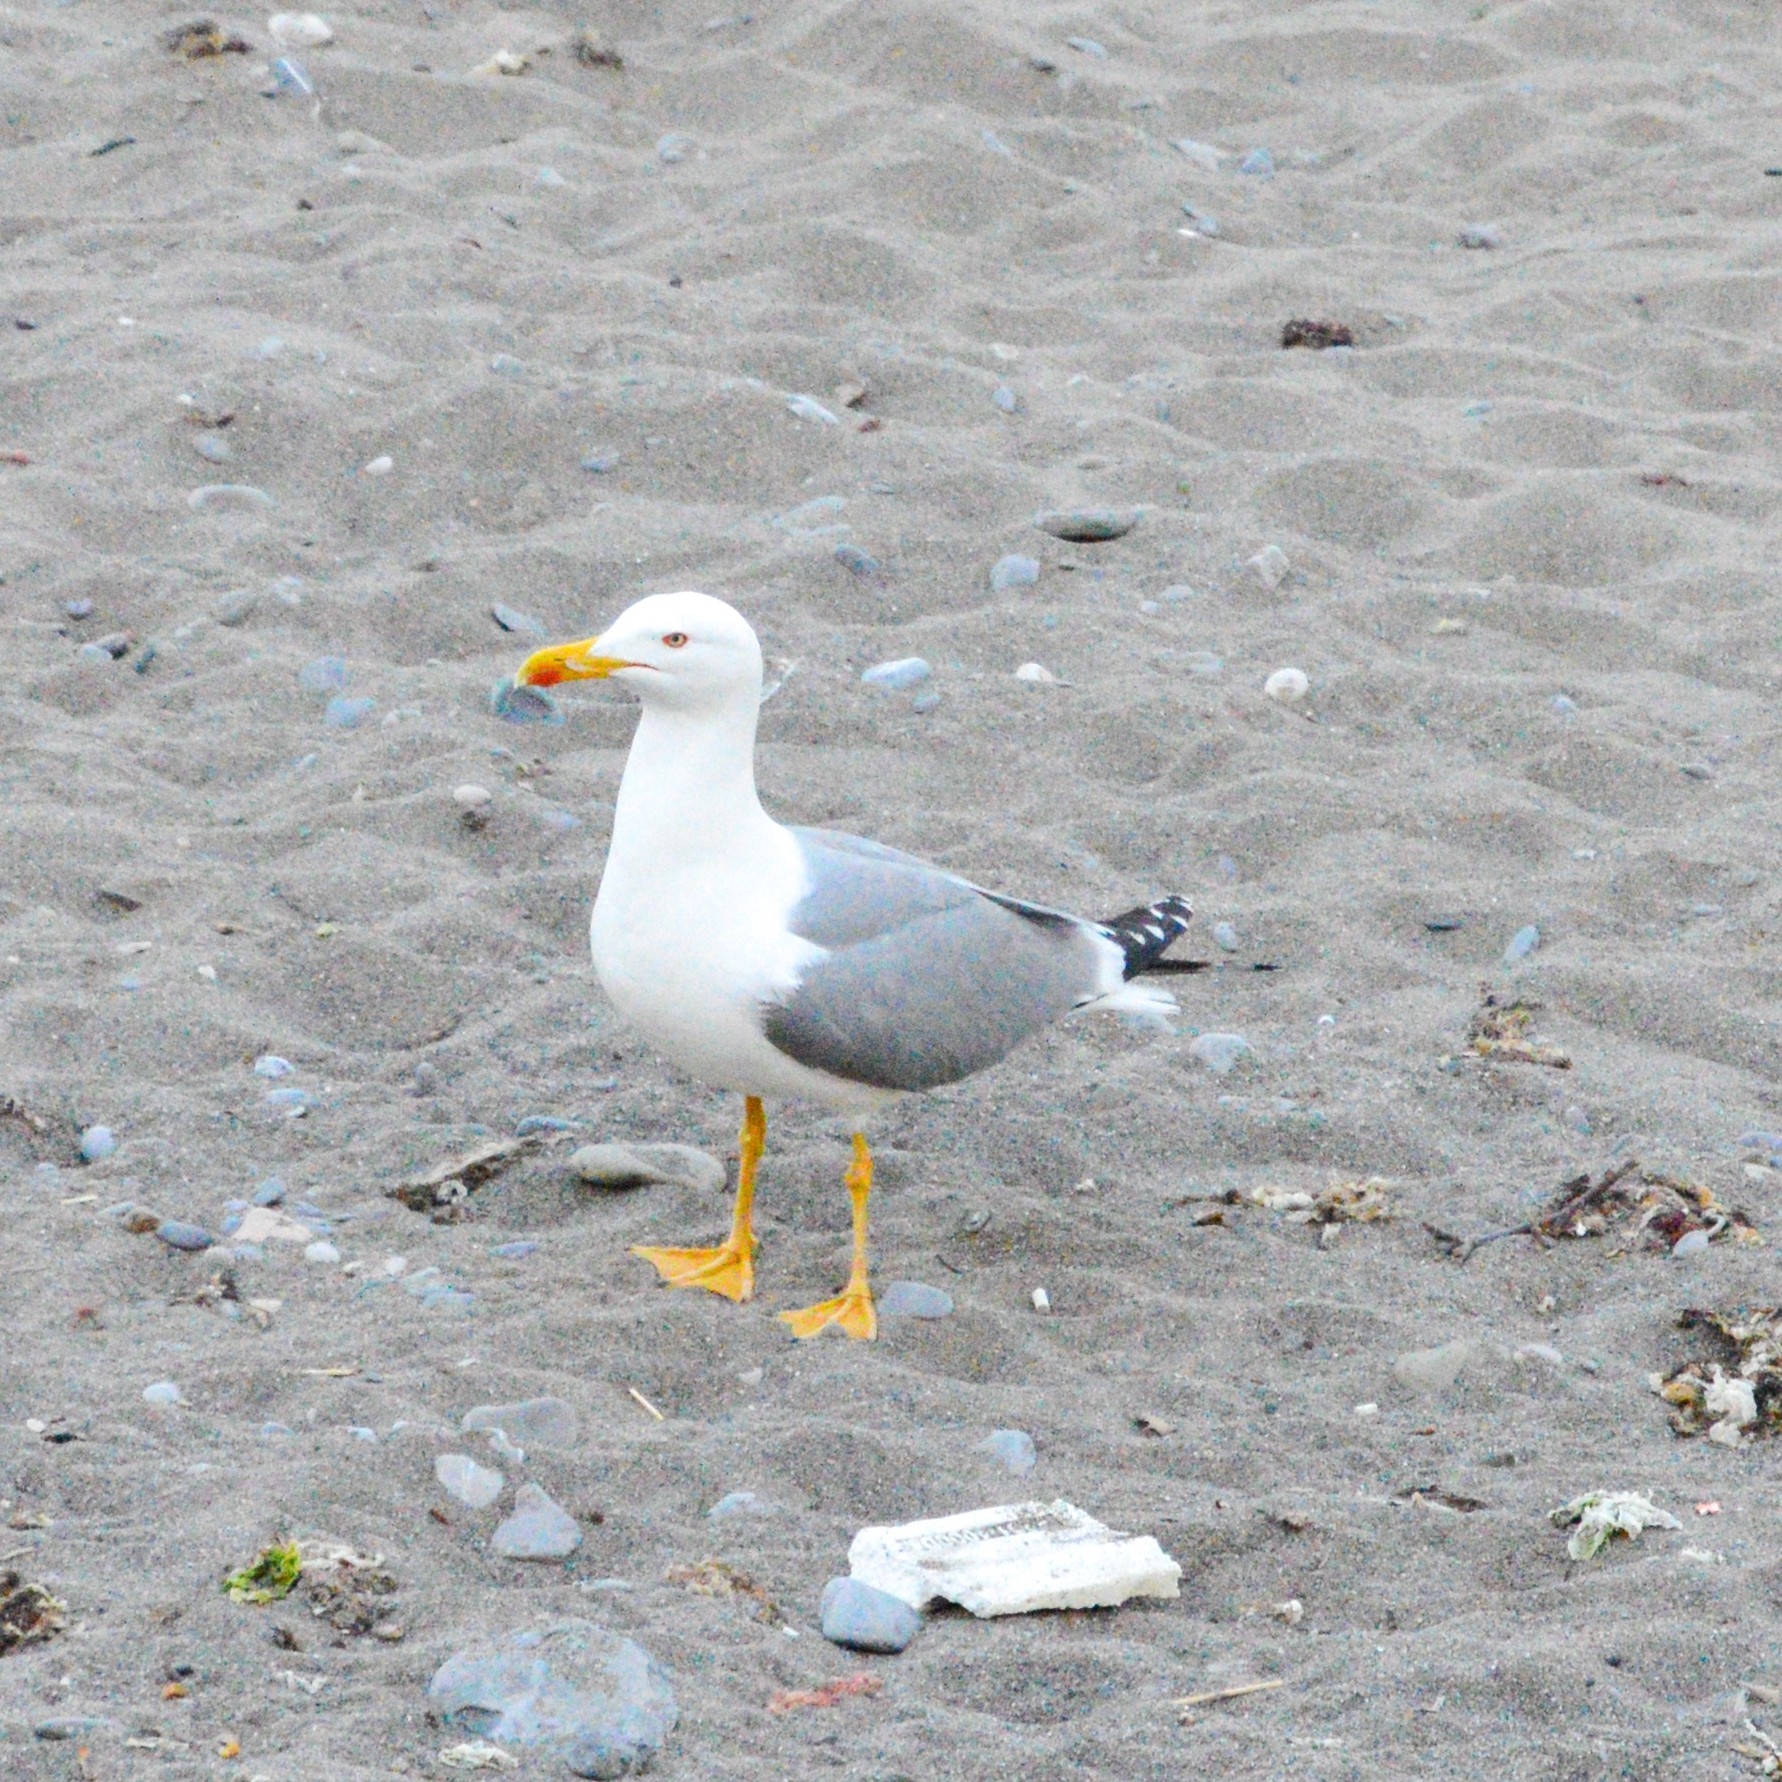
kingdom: Animalia
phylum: Chordata
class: Aves
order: Charadriiformes
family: Laridae
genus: Larus
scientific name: Larus michahellis
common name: Yellow-legged gull
